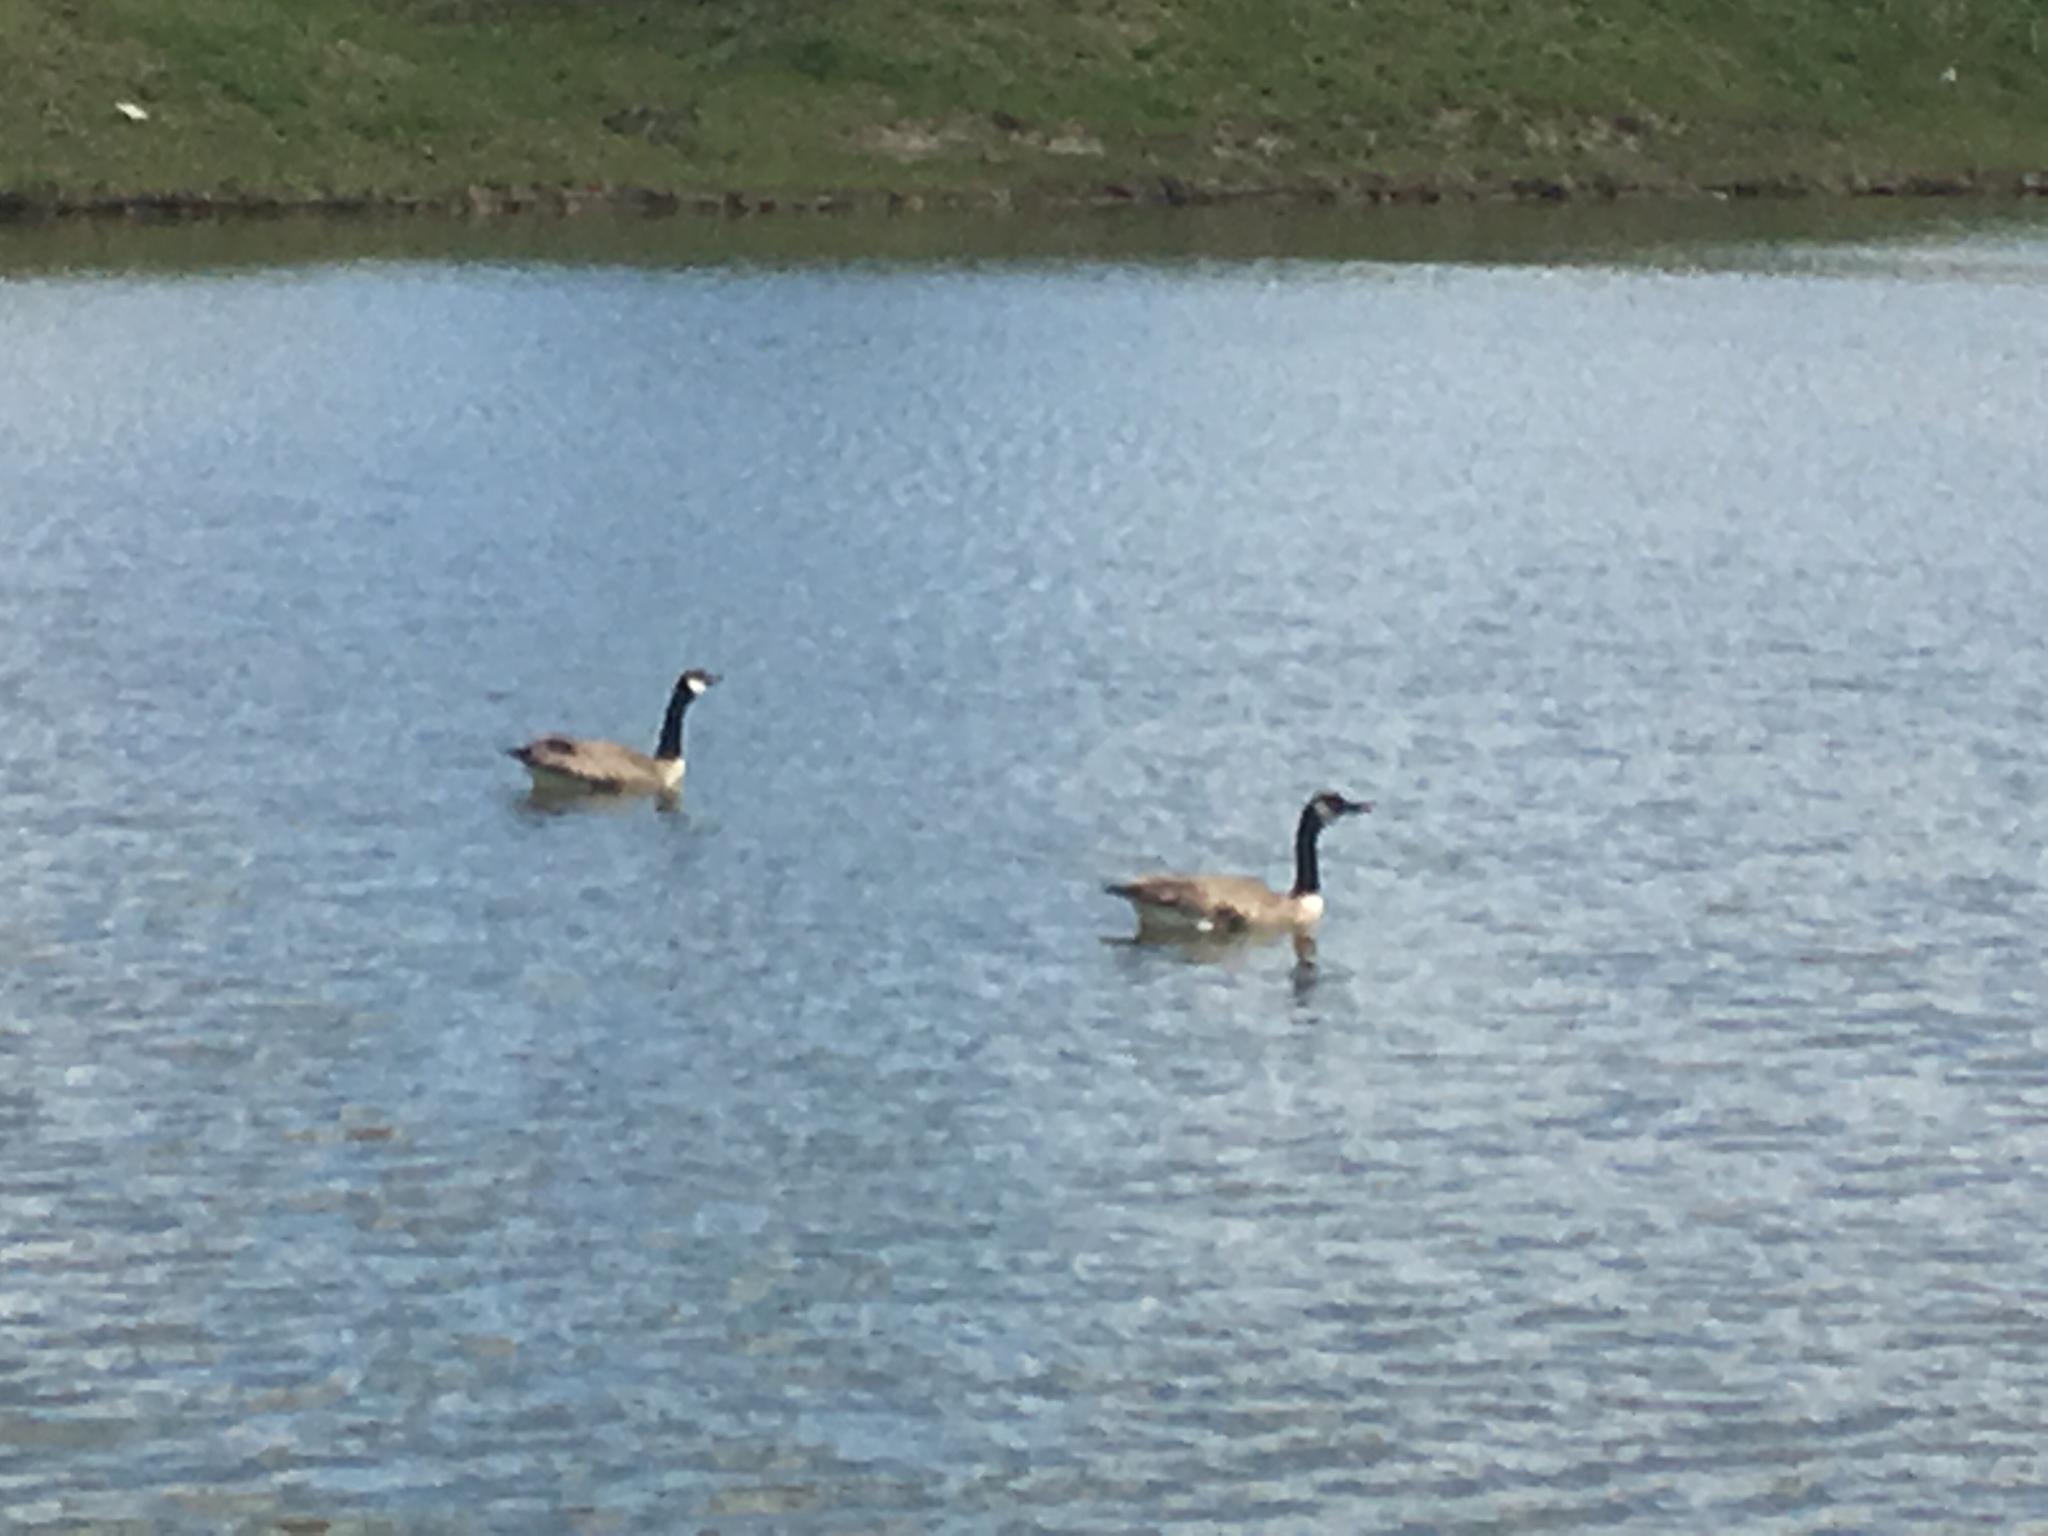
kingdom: Animalia
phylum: Chordata
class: Aves
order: Anseriformes
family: Anatidae
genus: Branta
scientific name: Branta canadensis
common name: Canada goose
